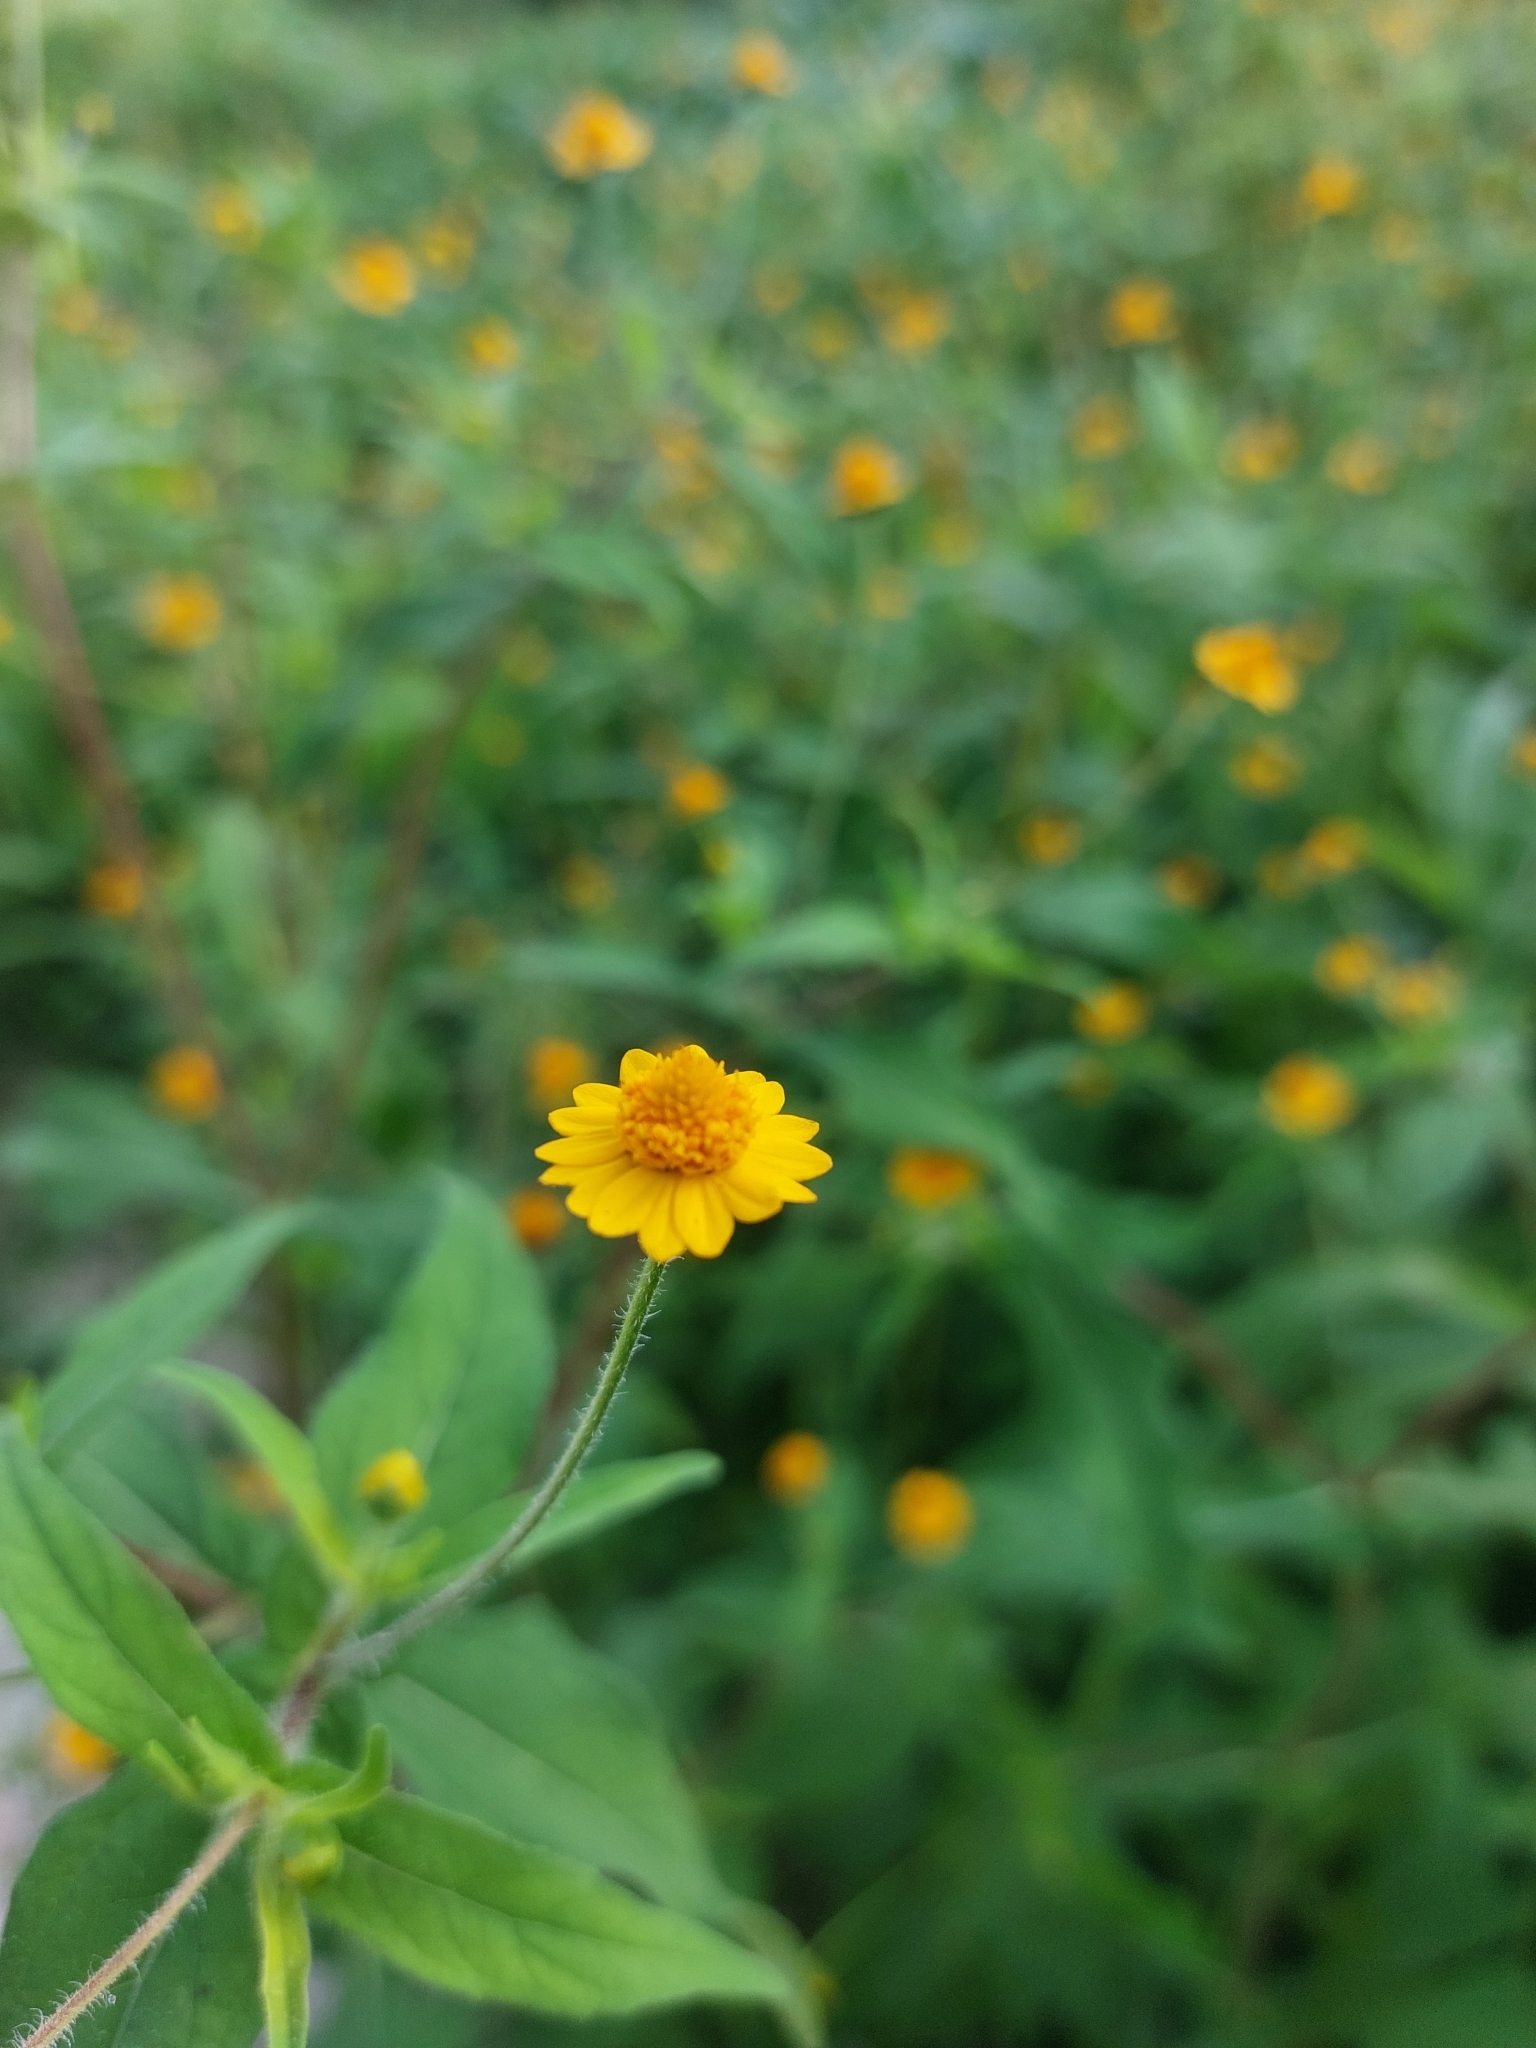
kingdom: Plantae
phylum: Tracheophyta
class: Magnoliopsida
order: Asterales
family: Asteraceae
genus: Melampodium
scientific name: Melampodium divaricatum
